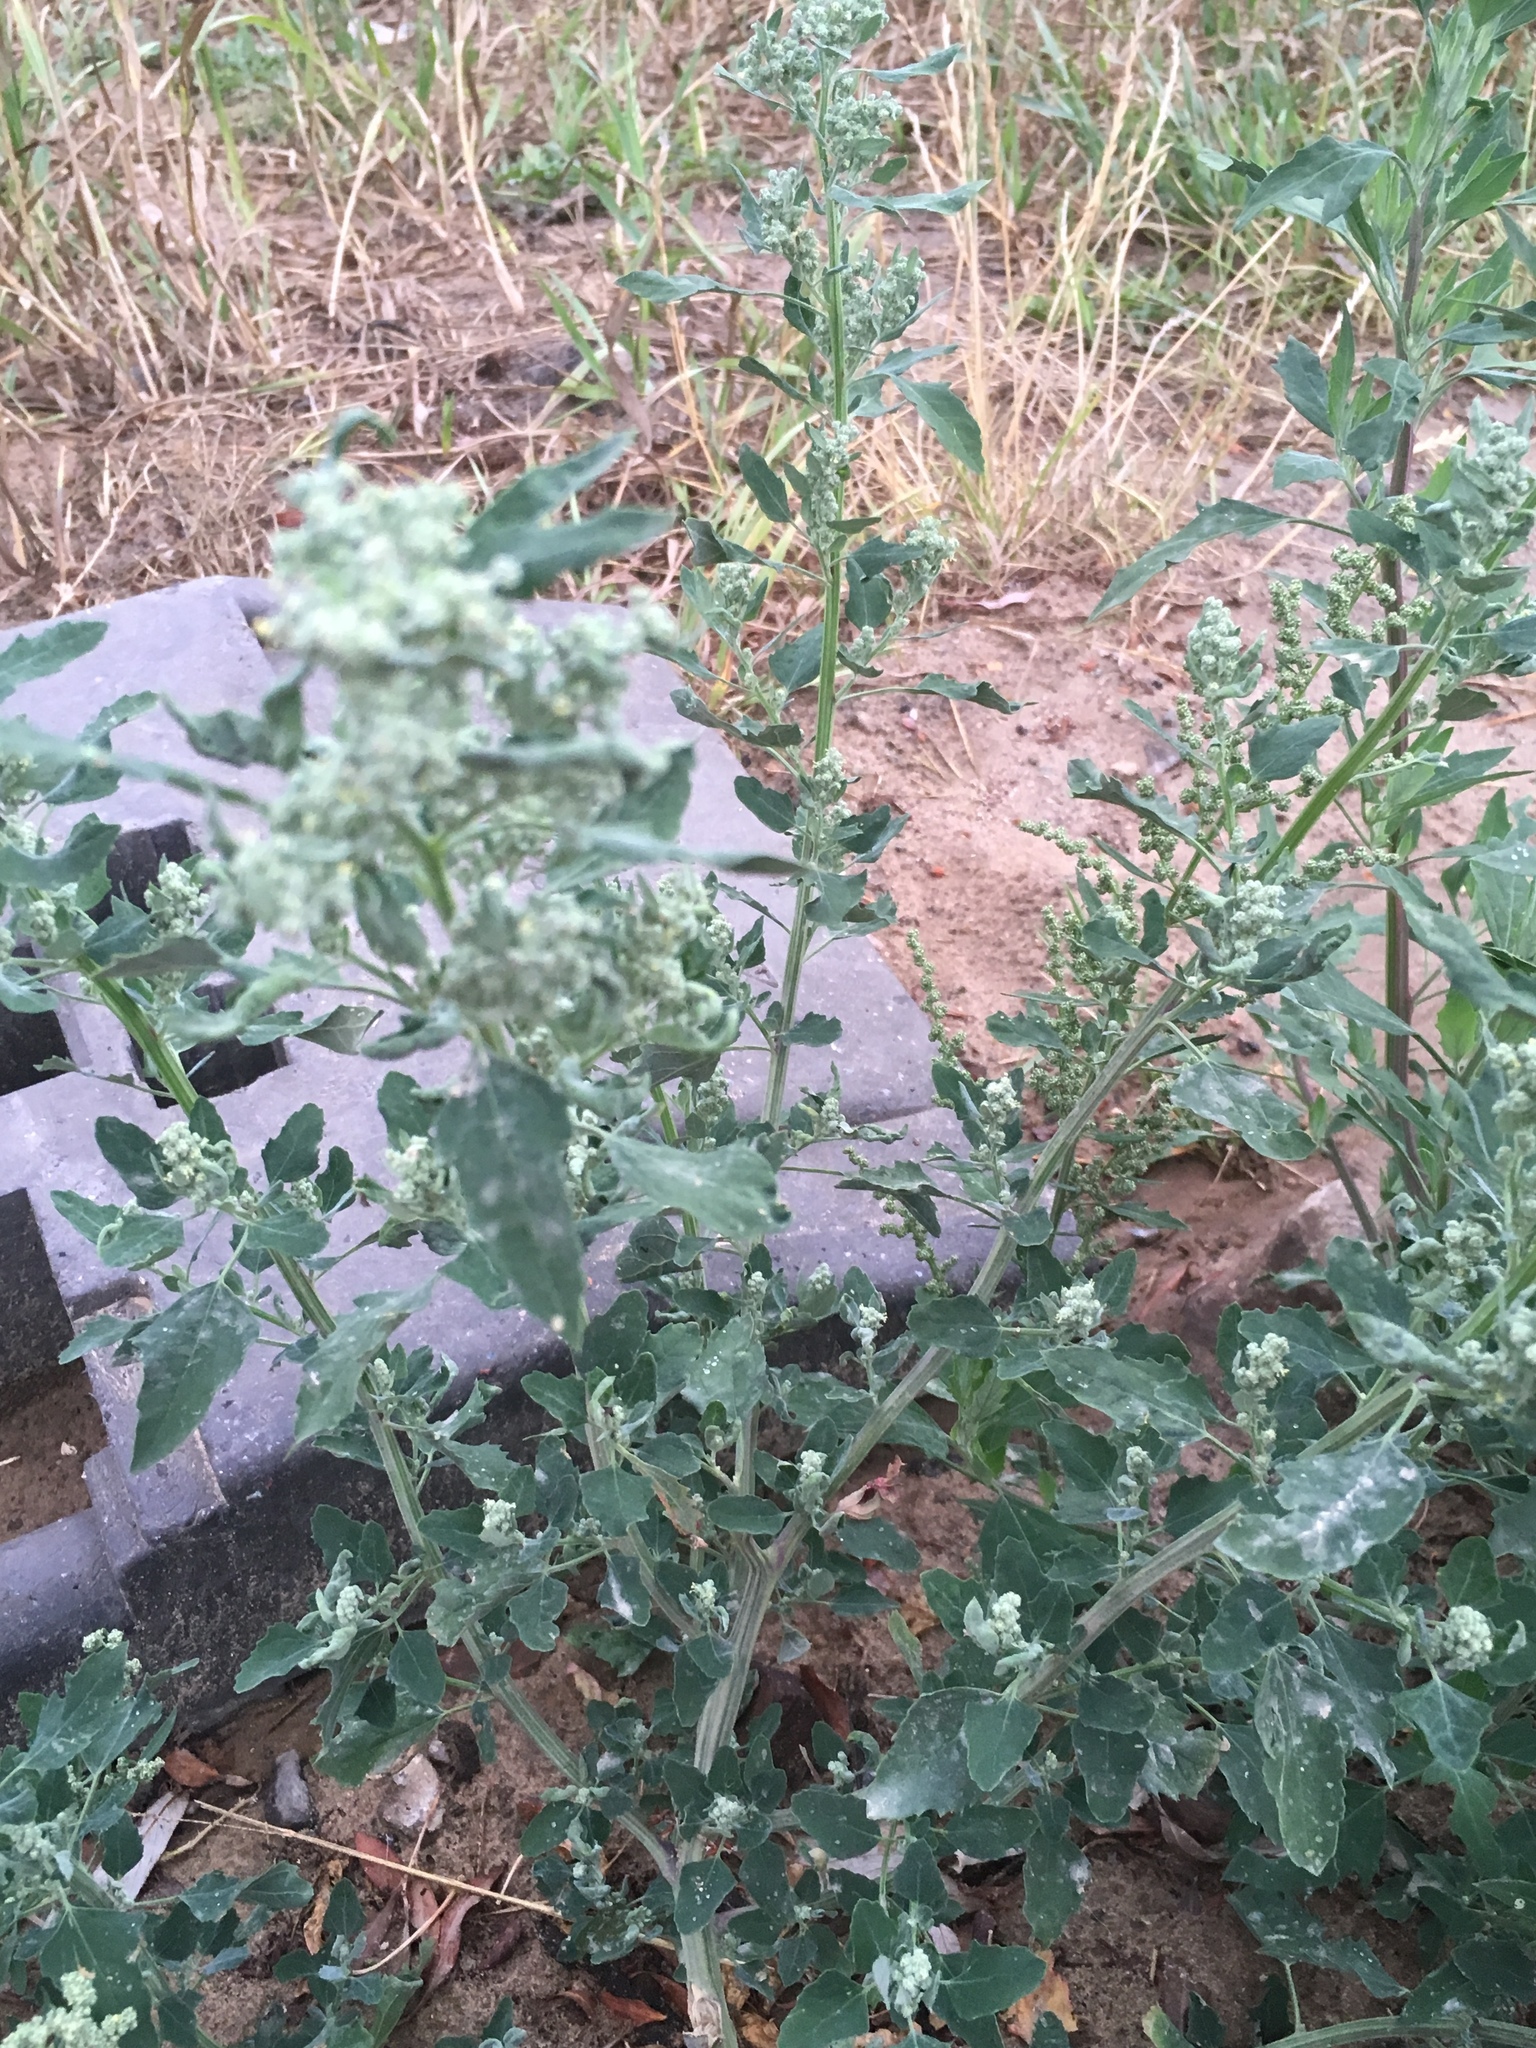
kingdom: Plantae
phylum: Tracheophyta
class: Magnoliopsida
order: Caryophyllales
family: Amaranthaceae
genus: Chenopodium
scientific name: Chenopodium album
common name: Fat-hen
